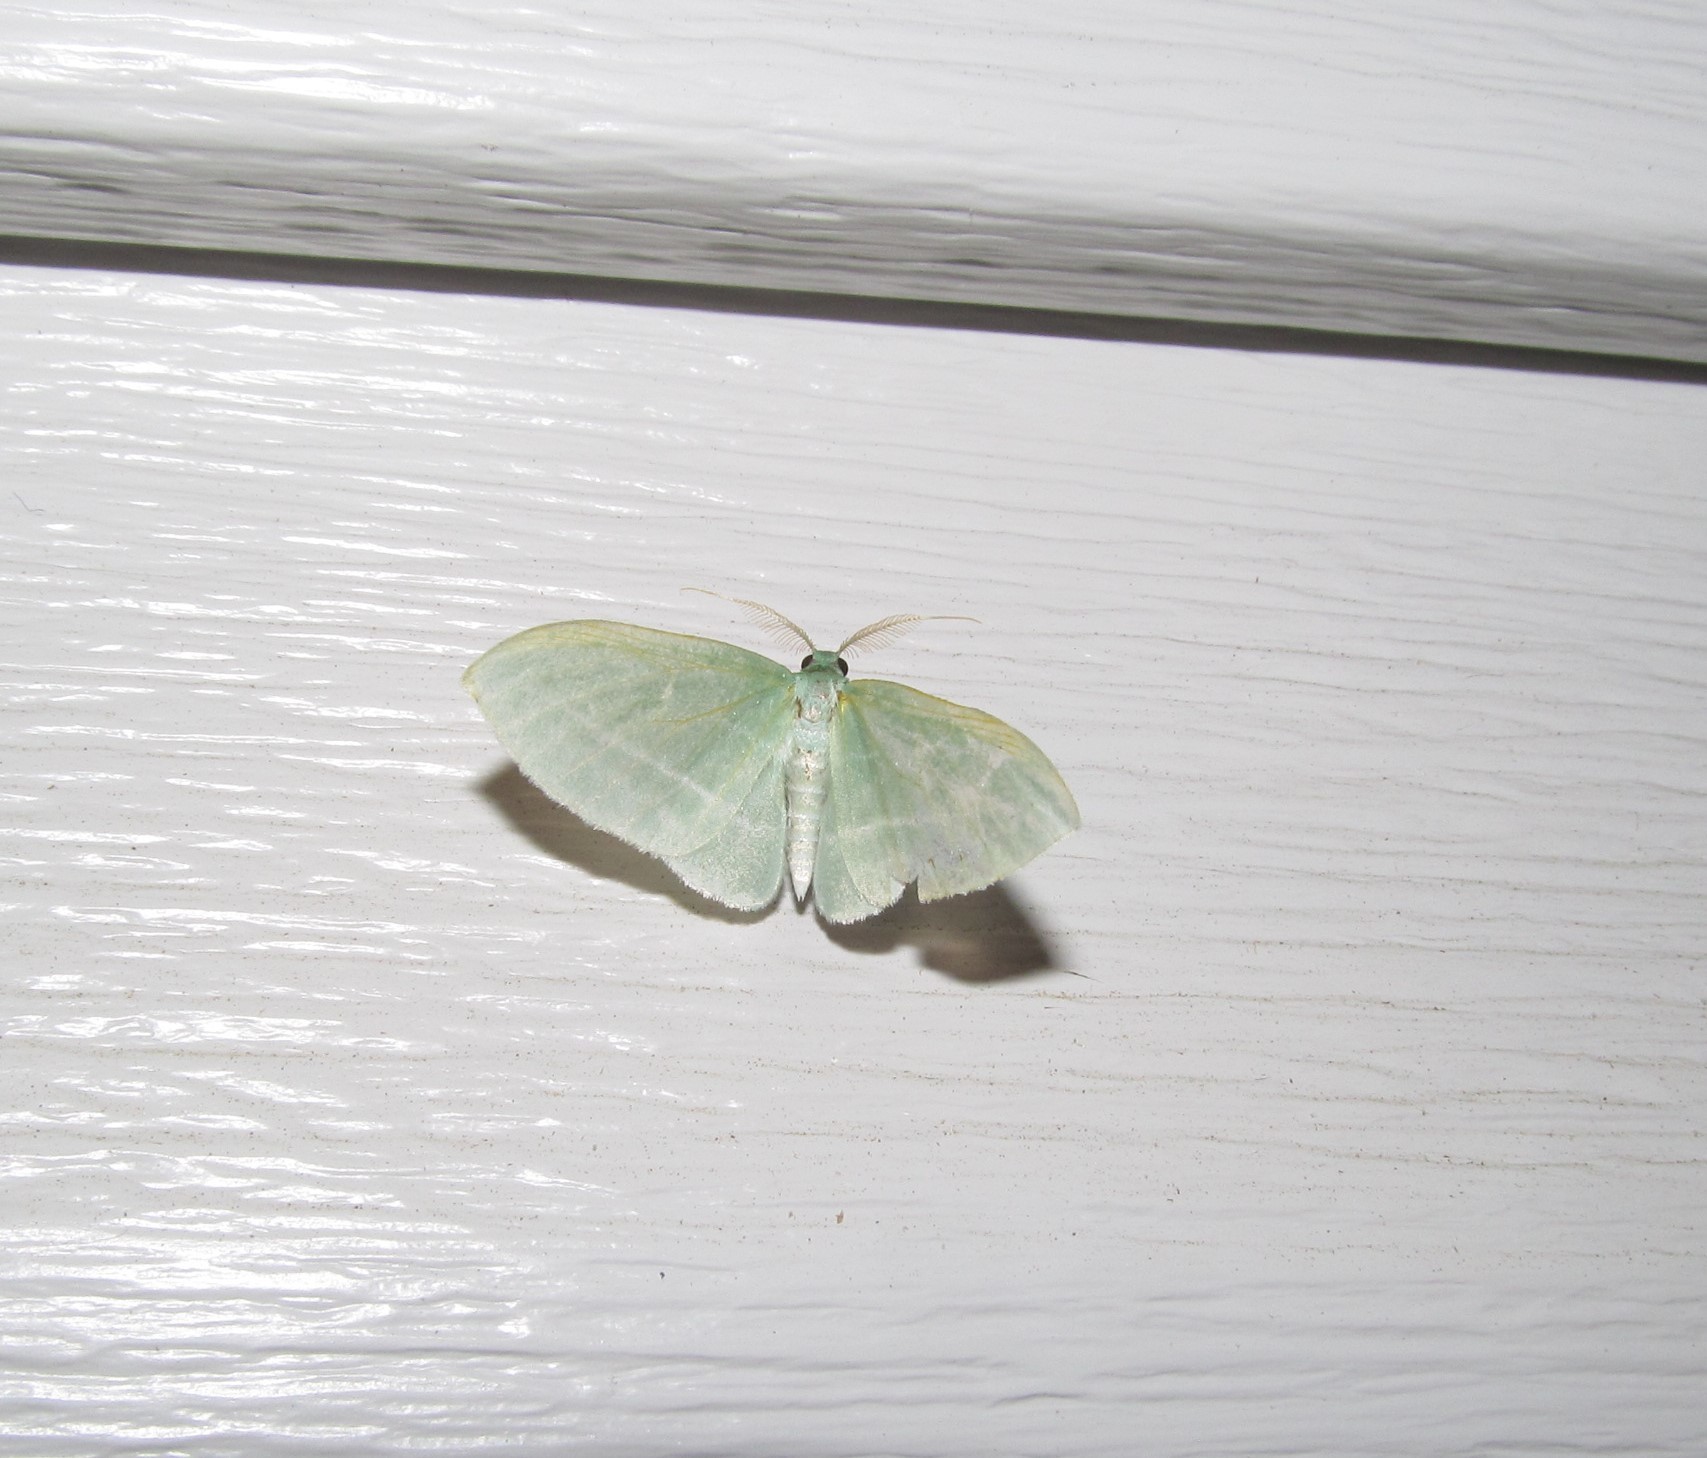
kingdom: Animalia
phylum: Arthropoda
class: Insecta
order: Lepidoptera
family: Geometridae
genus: Dyspteris
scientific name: Dyspteris abortivaria
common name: Bad-wing
